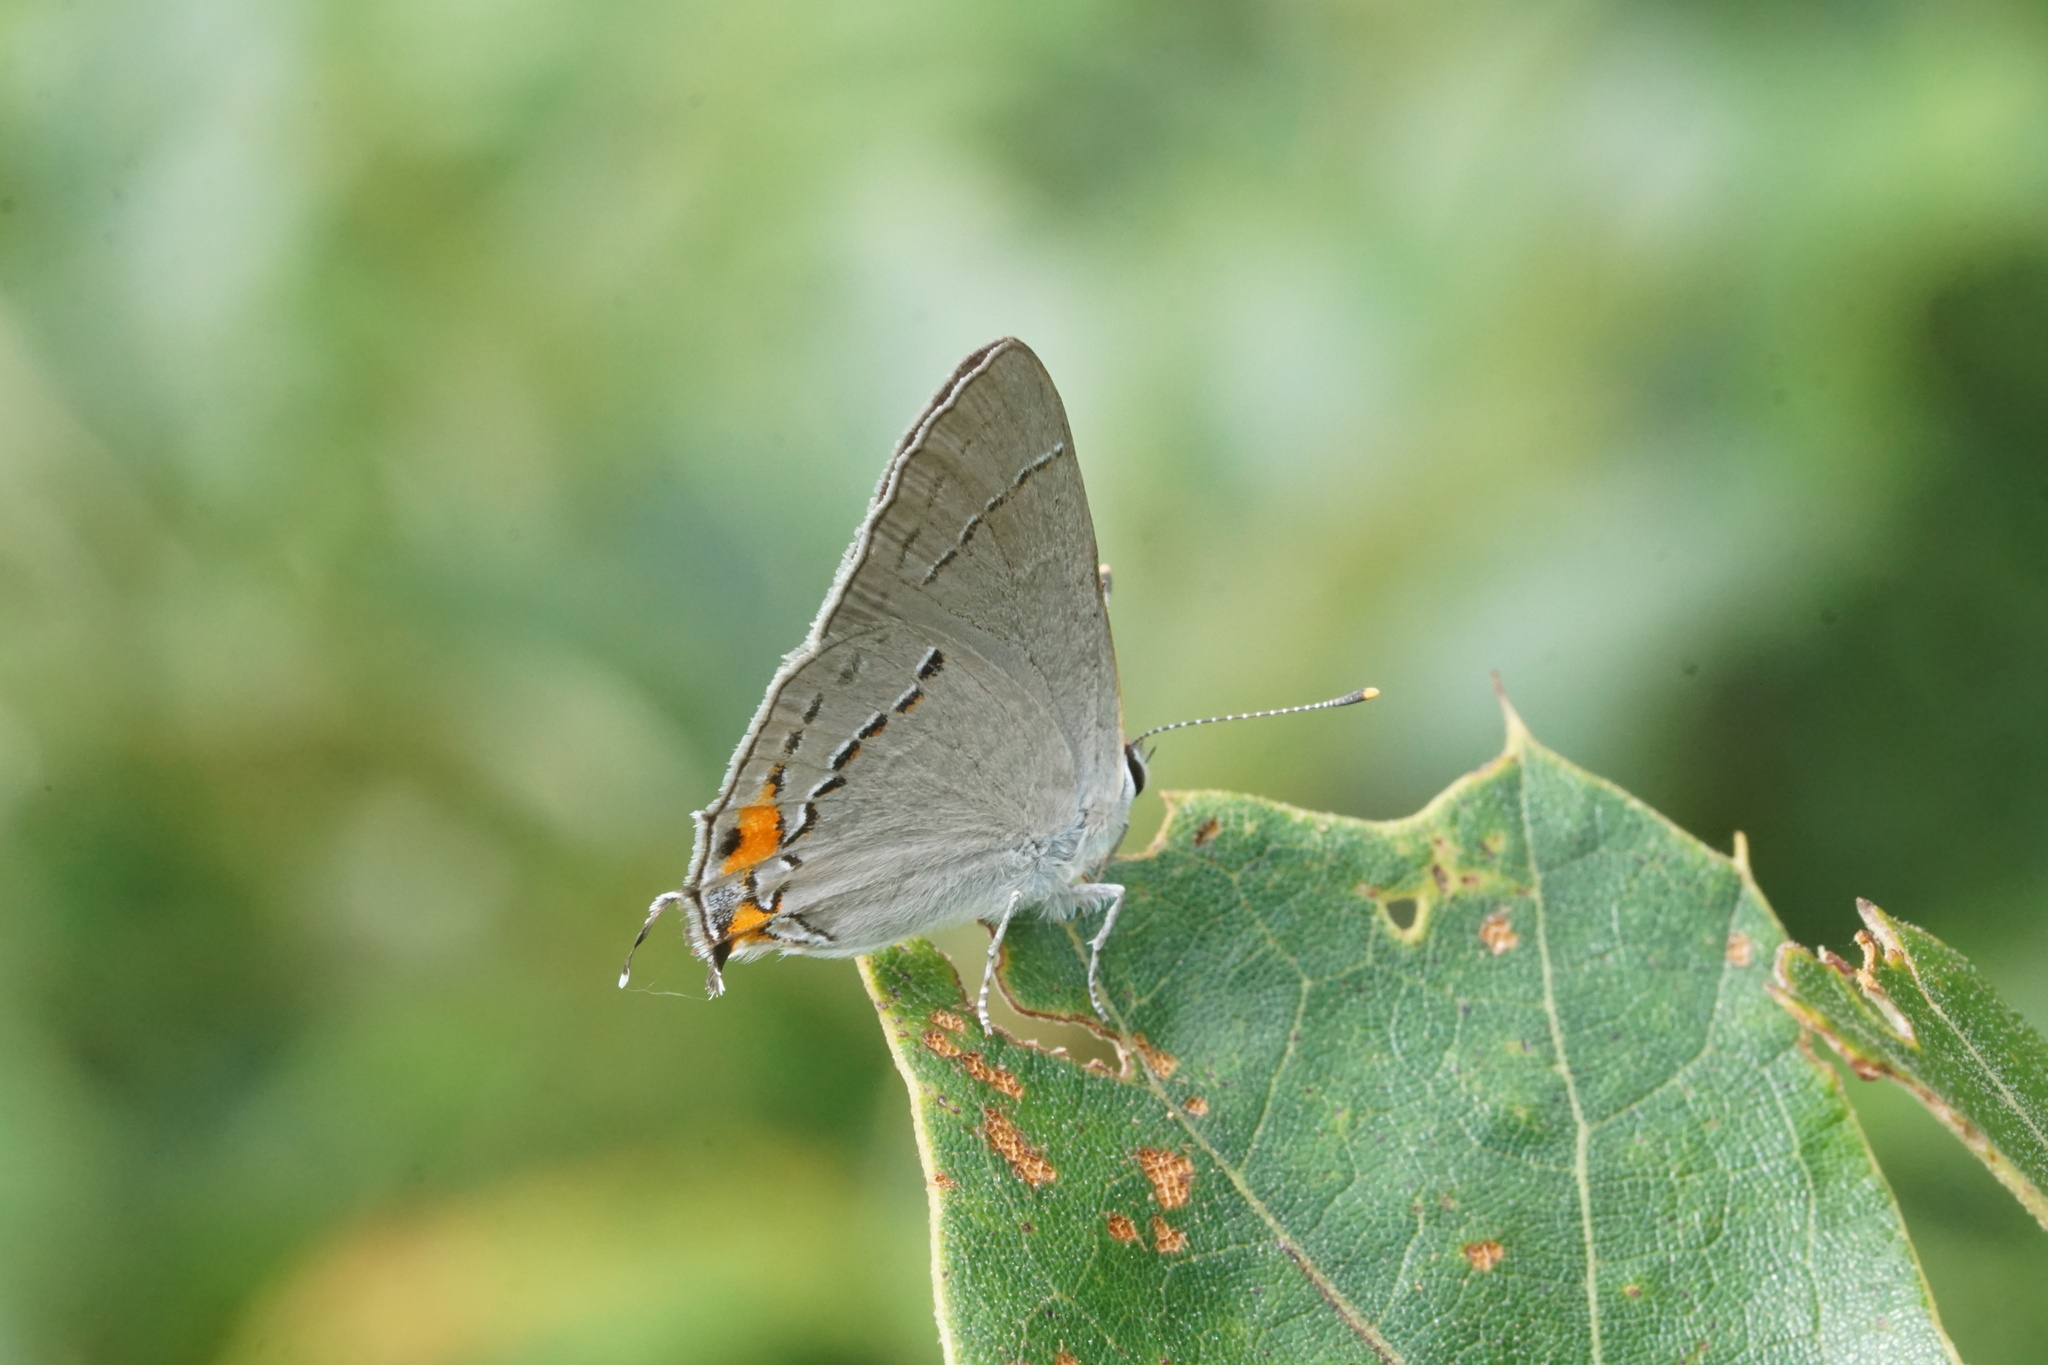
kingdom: Animalia
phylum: Arthropoda
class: Insecta
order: Lepidoptera
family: Lycaenidae
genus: Strymon
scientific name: Strymon melinus
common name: Gray hairstreak
